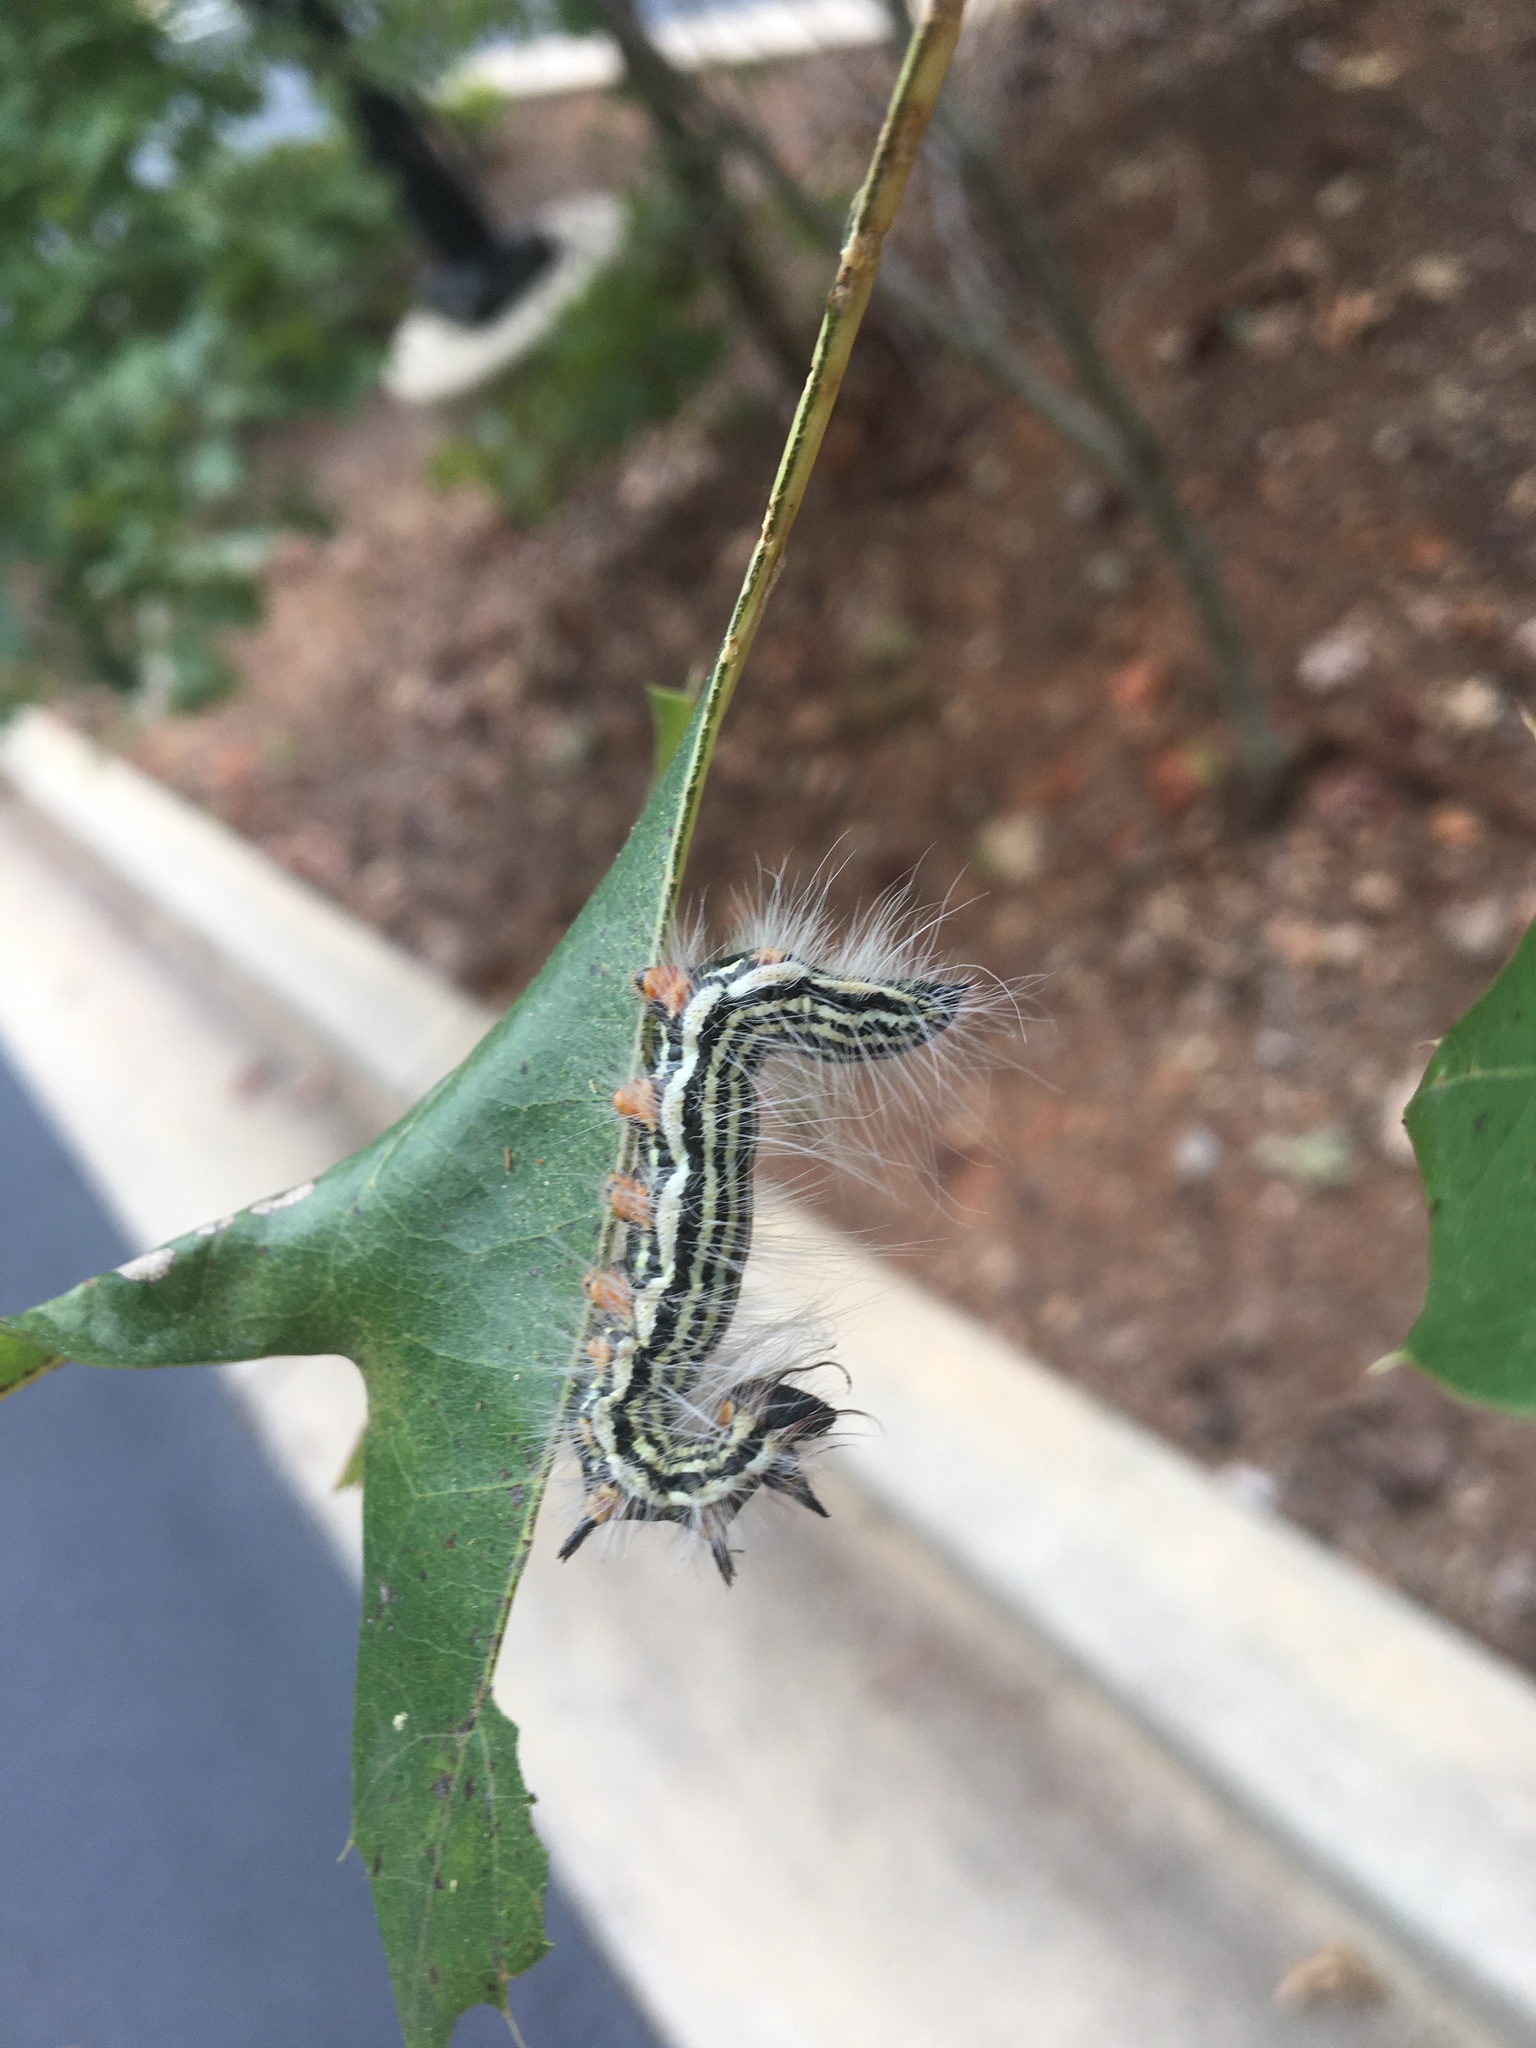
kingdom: Animalia
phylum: Arthropoda
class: Insecta
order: Lepidoptera
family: Notodontidae
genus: Datana
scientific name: Datana contracta
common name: Contracted datana
